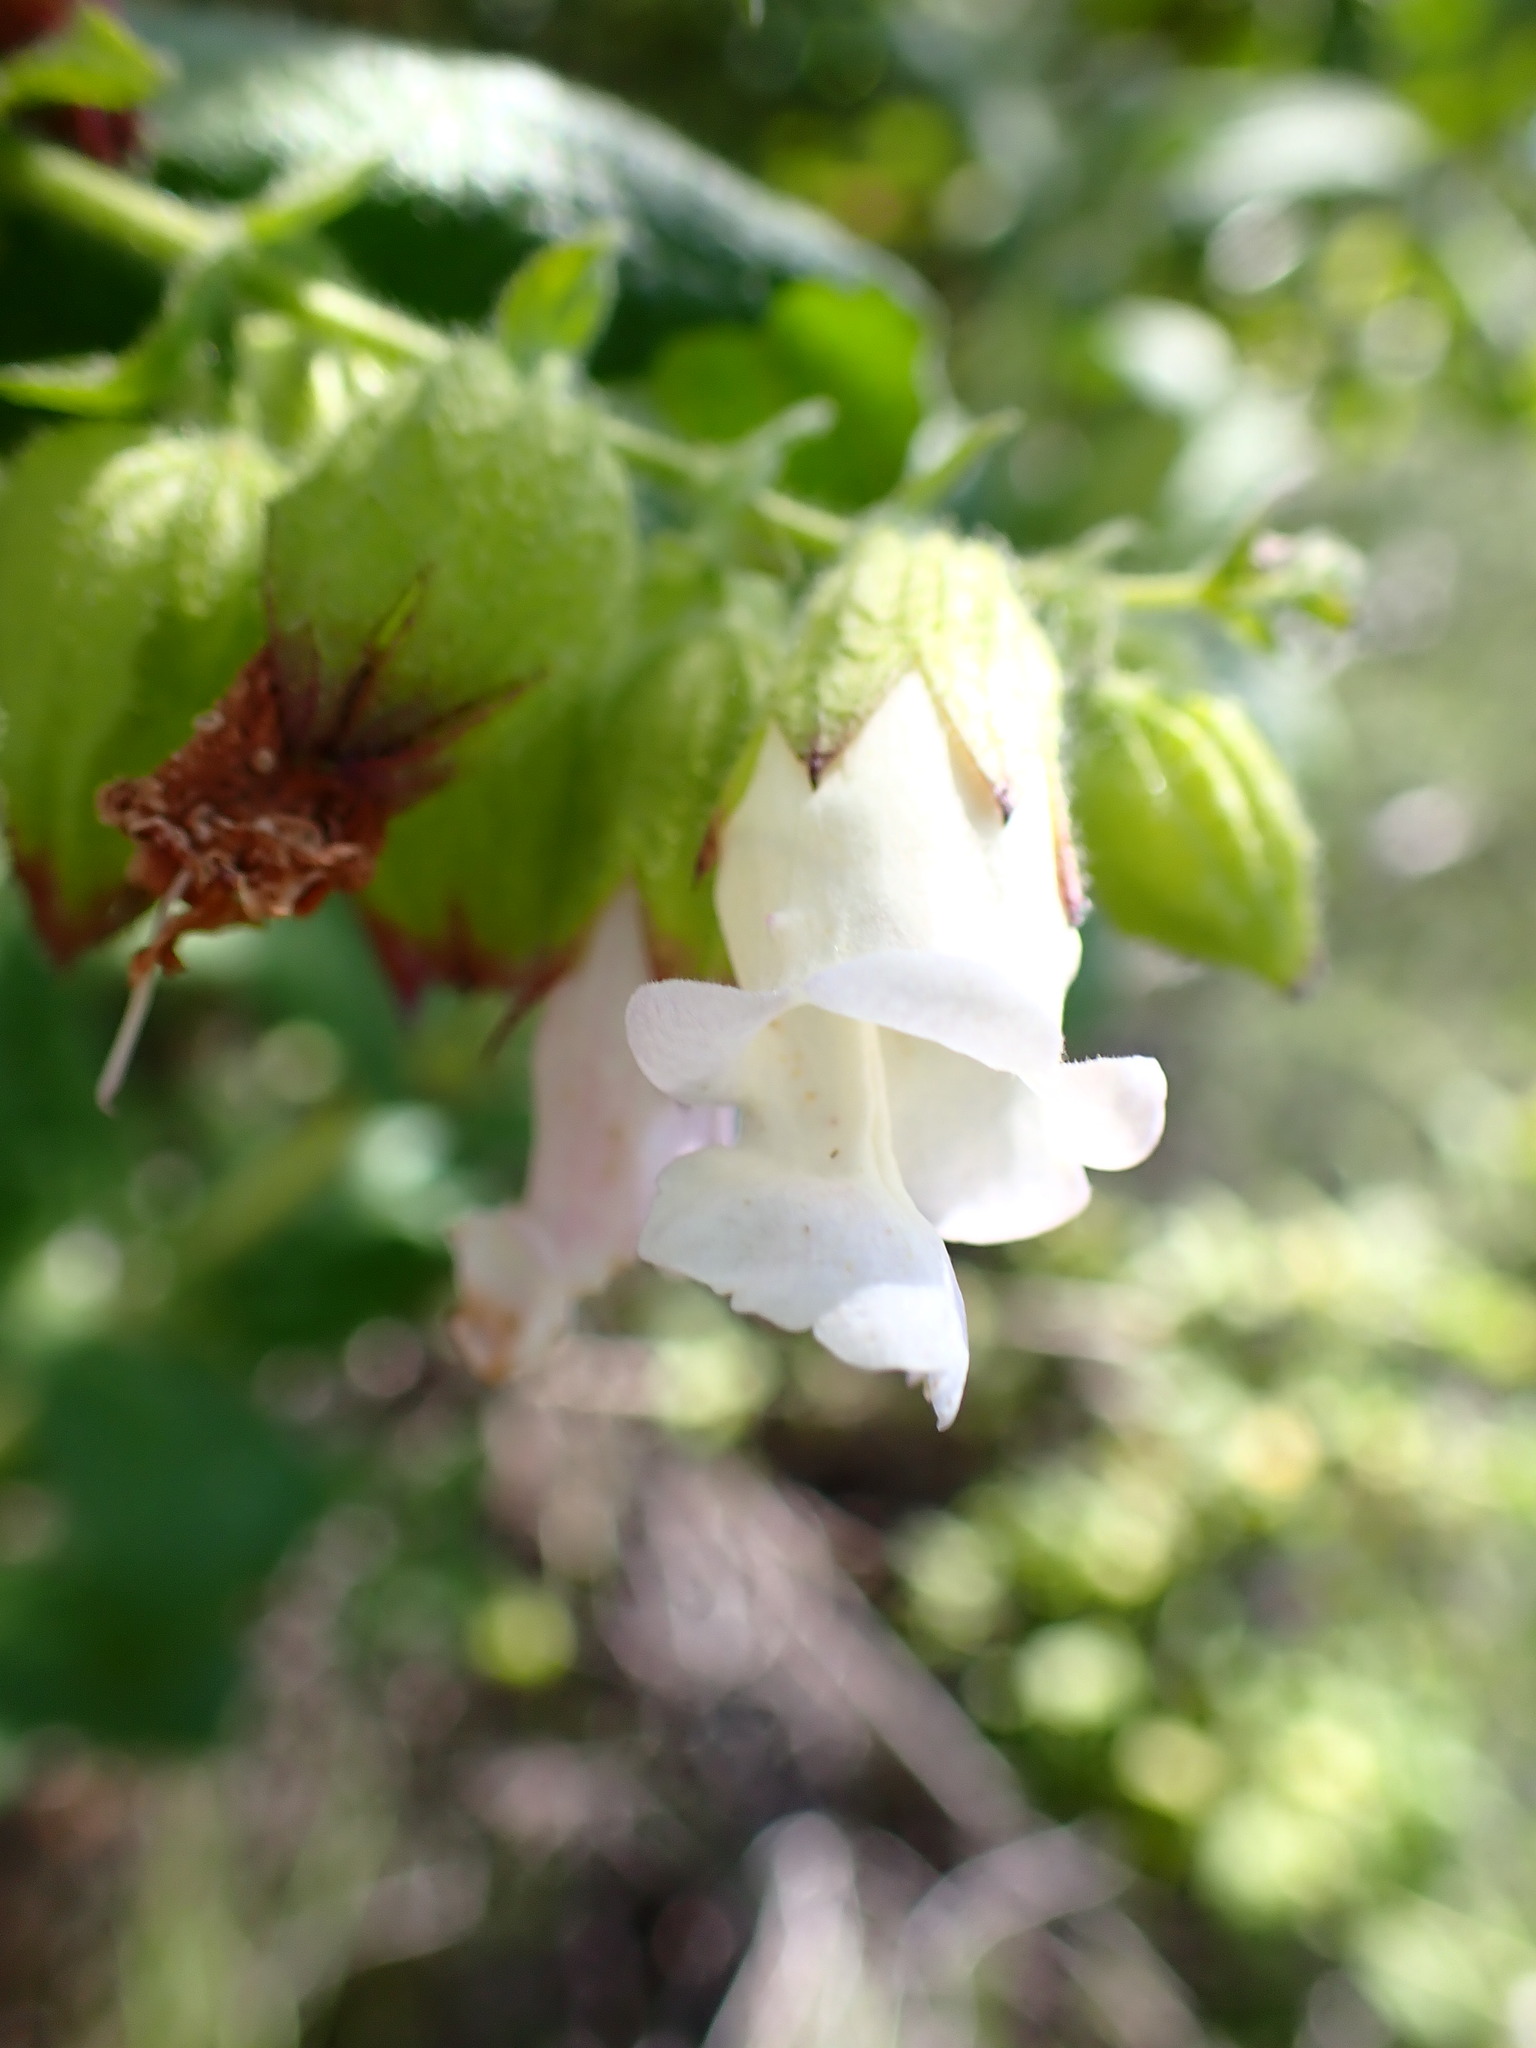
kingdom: Plantae
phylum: Tracheophyta
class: Magnoliopsida
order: Lamiales
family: Lamiaceae
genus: Lepechinia
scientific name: Lepechinia calycina
